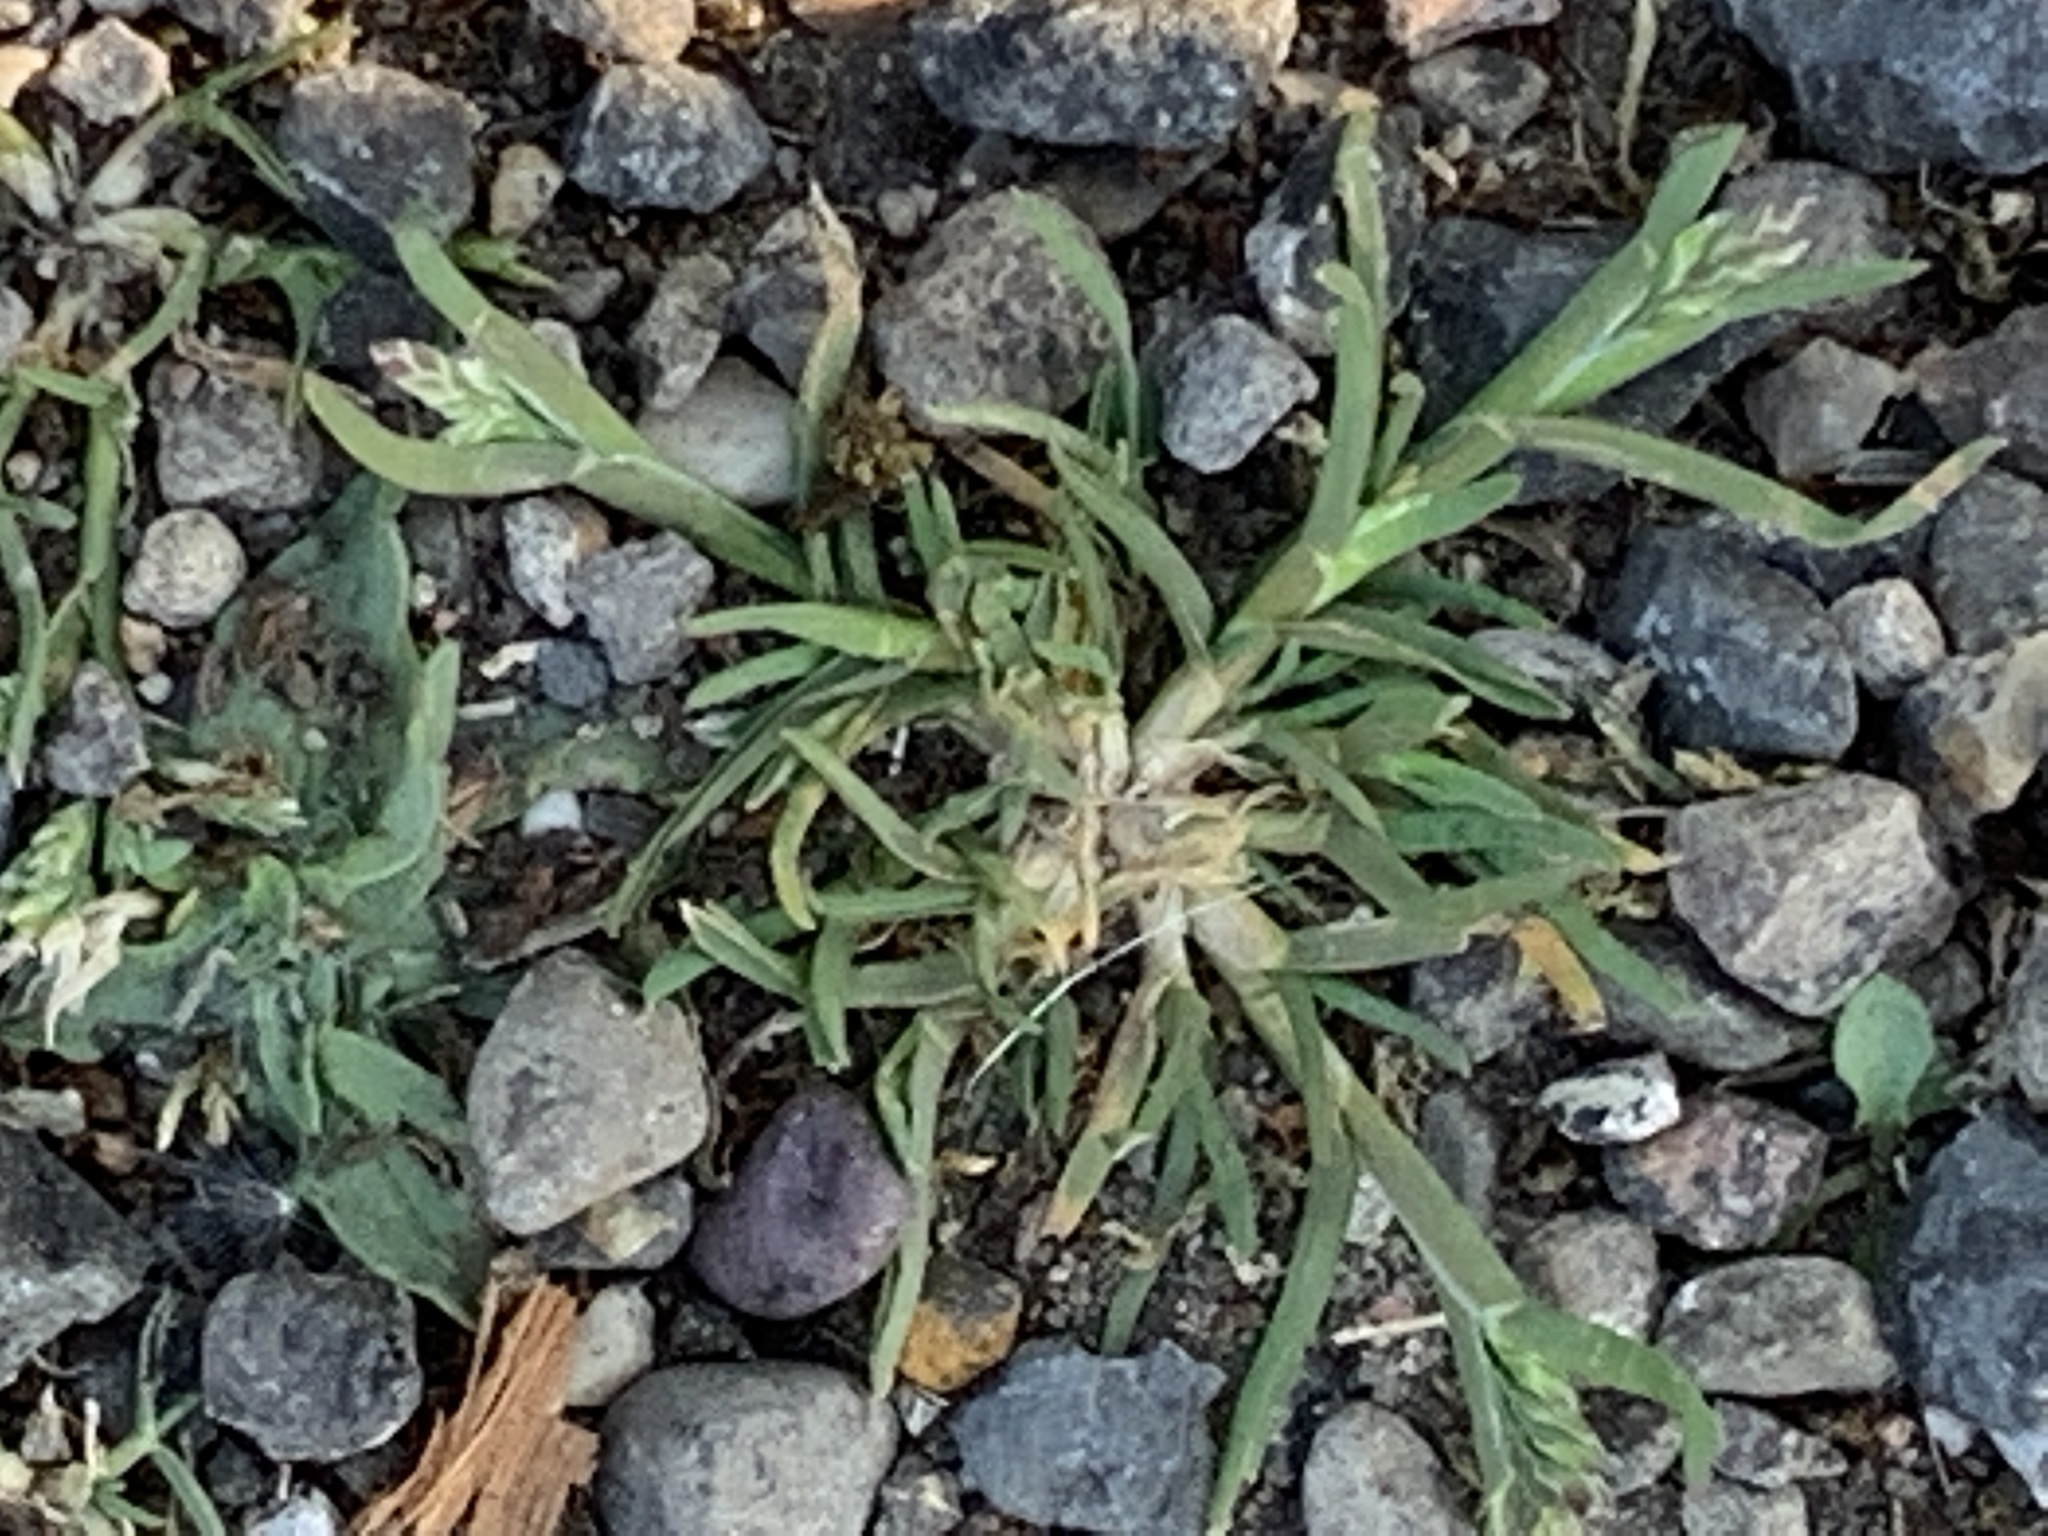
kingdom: Plantae
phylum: Tracheophyta
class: Liliopsida
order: Poales
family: Poaceae
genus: Poa
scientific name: Poa annua
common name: Annual bluegrass
